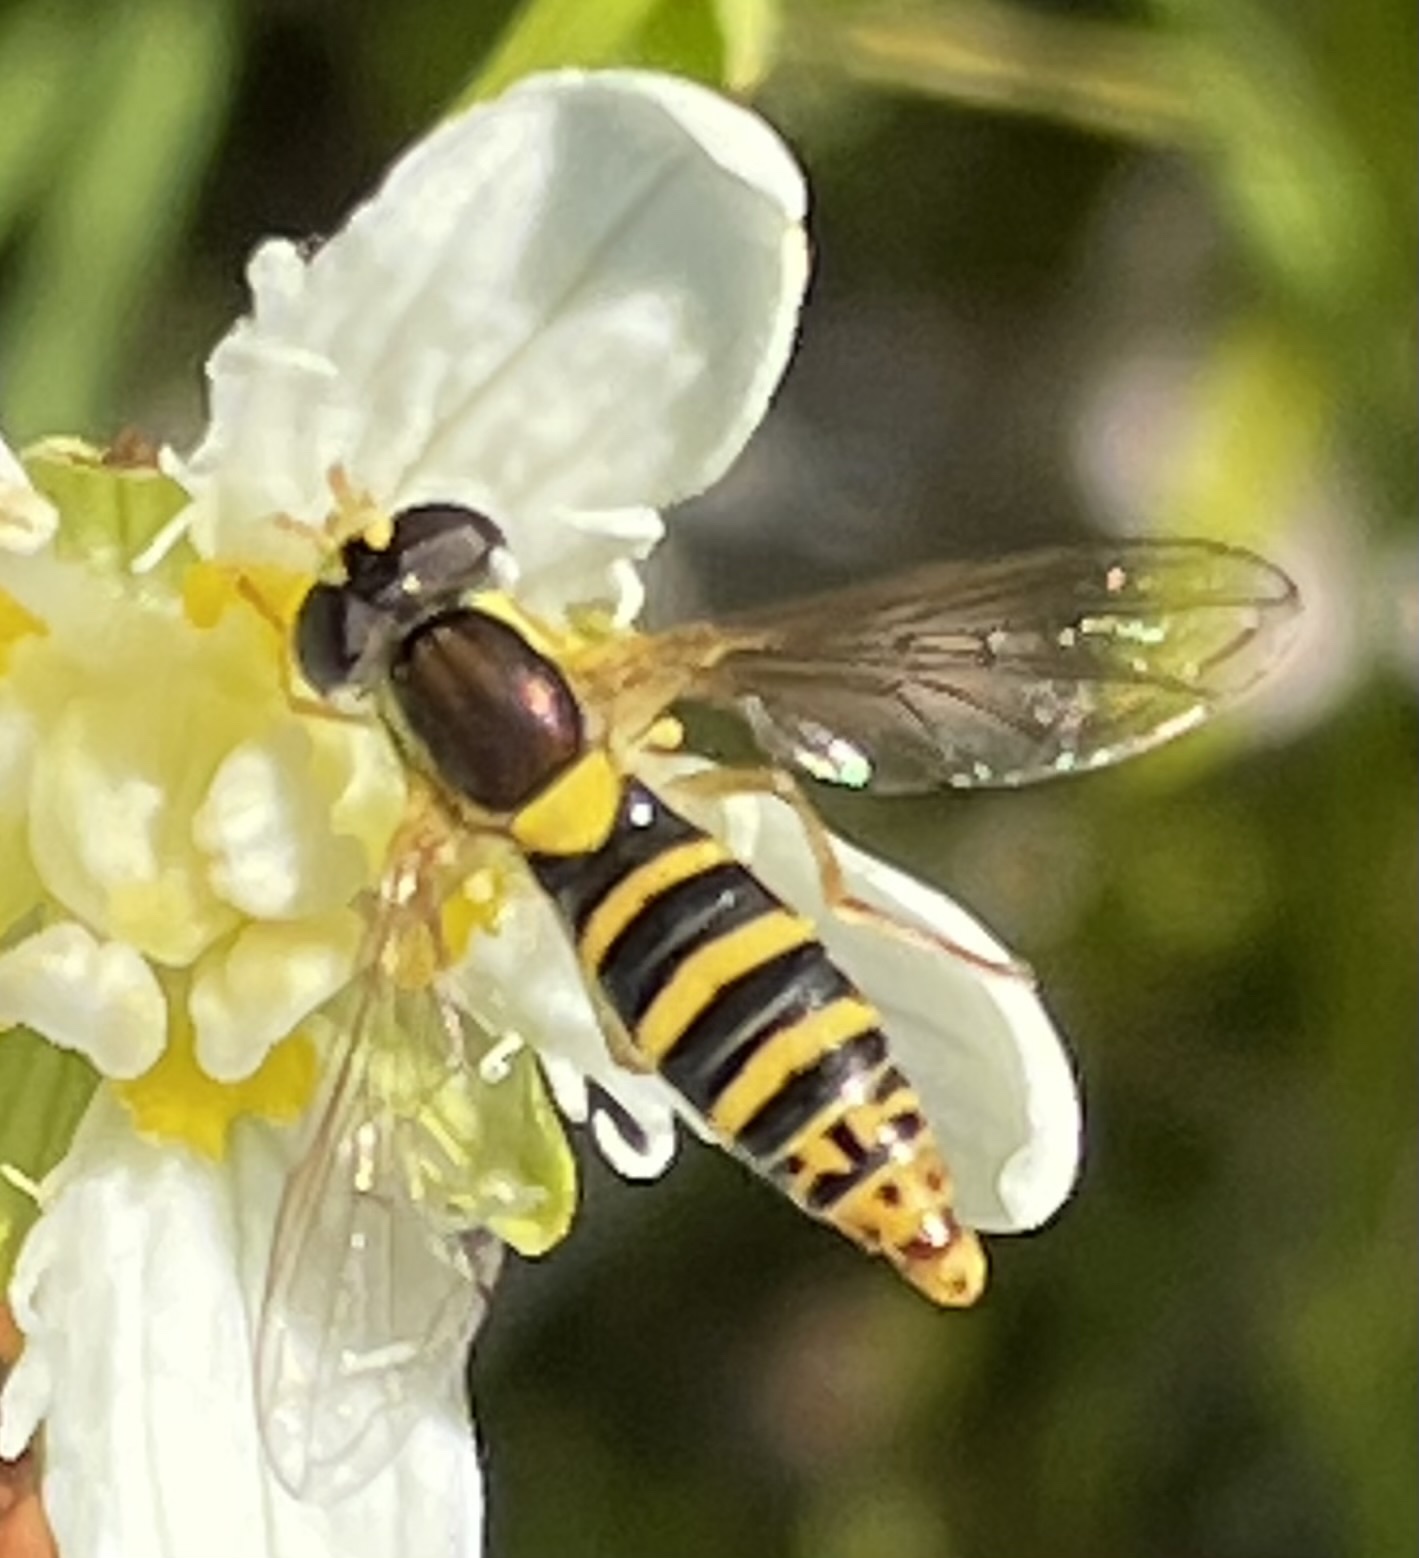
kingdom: Animalia
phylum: Arthropoda
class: Insecta
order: Diptera
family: Syrphidae
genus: Sphaerophoria
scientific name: Sphaerophoria
